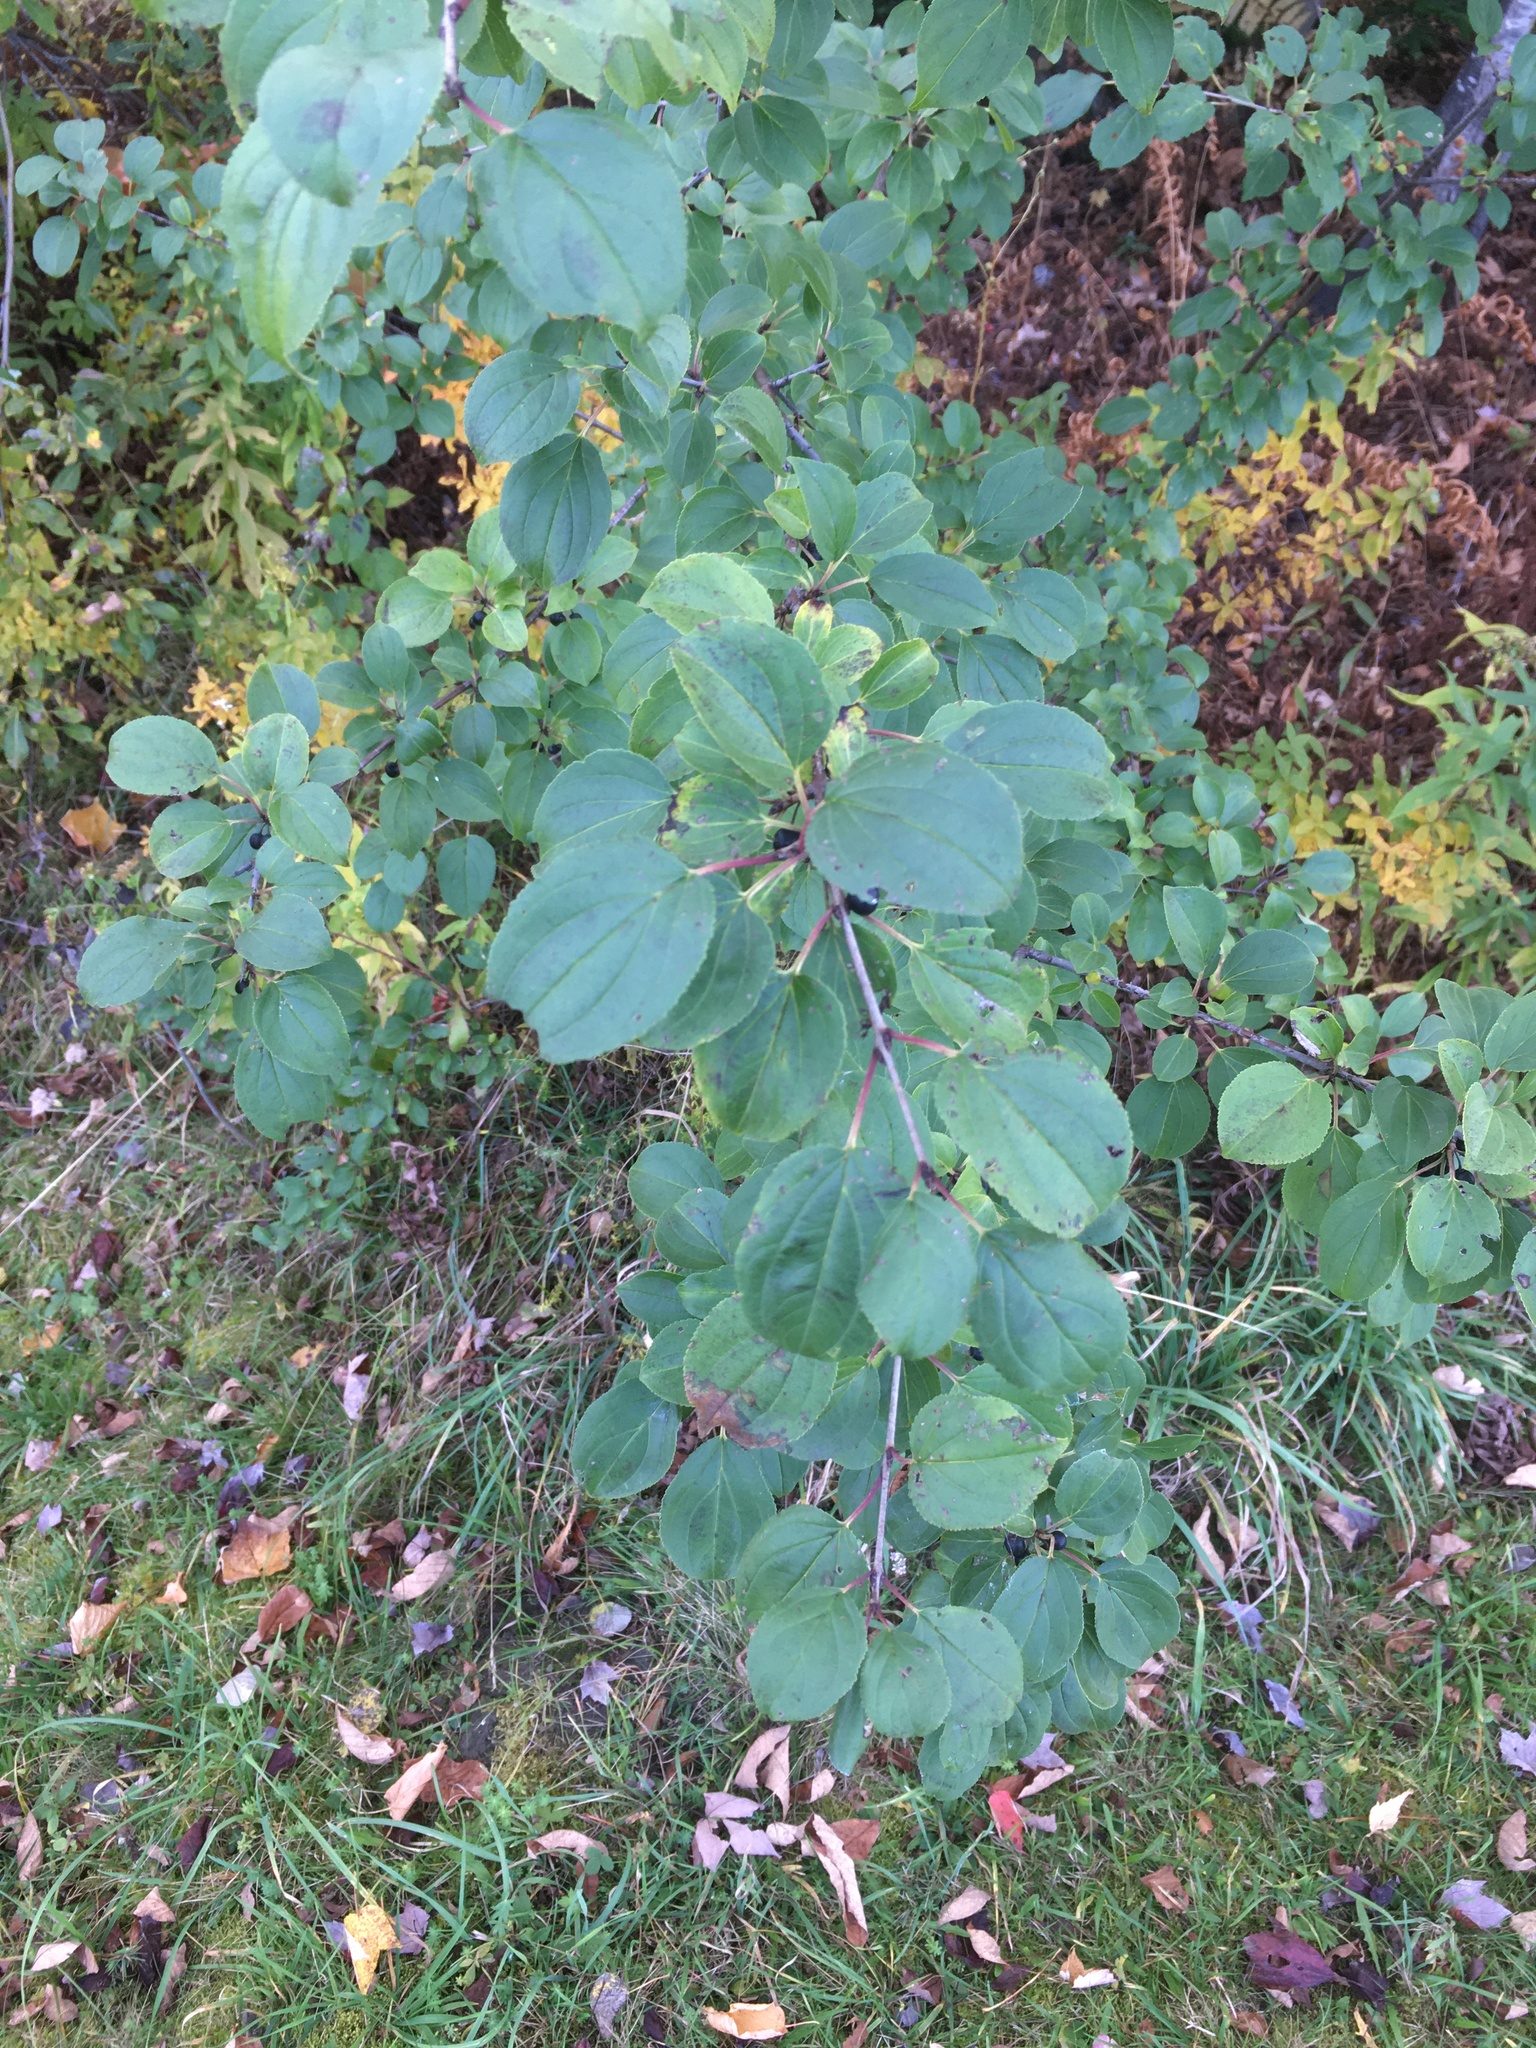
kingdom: Plantae
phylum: Tracheophyta
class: Magnoliopsida
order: Rosales
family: Rhamnaceae
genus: Rhamnus
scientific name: Rhamnus cathartica
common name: Common buckthorn
